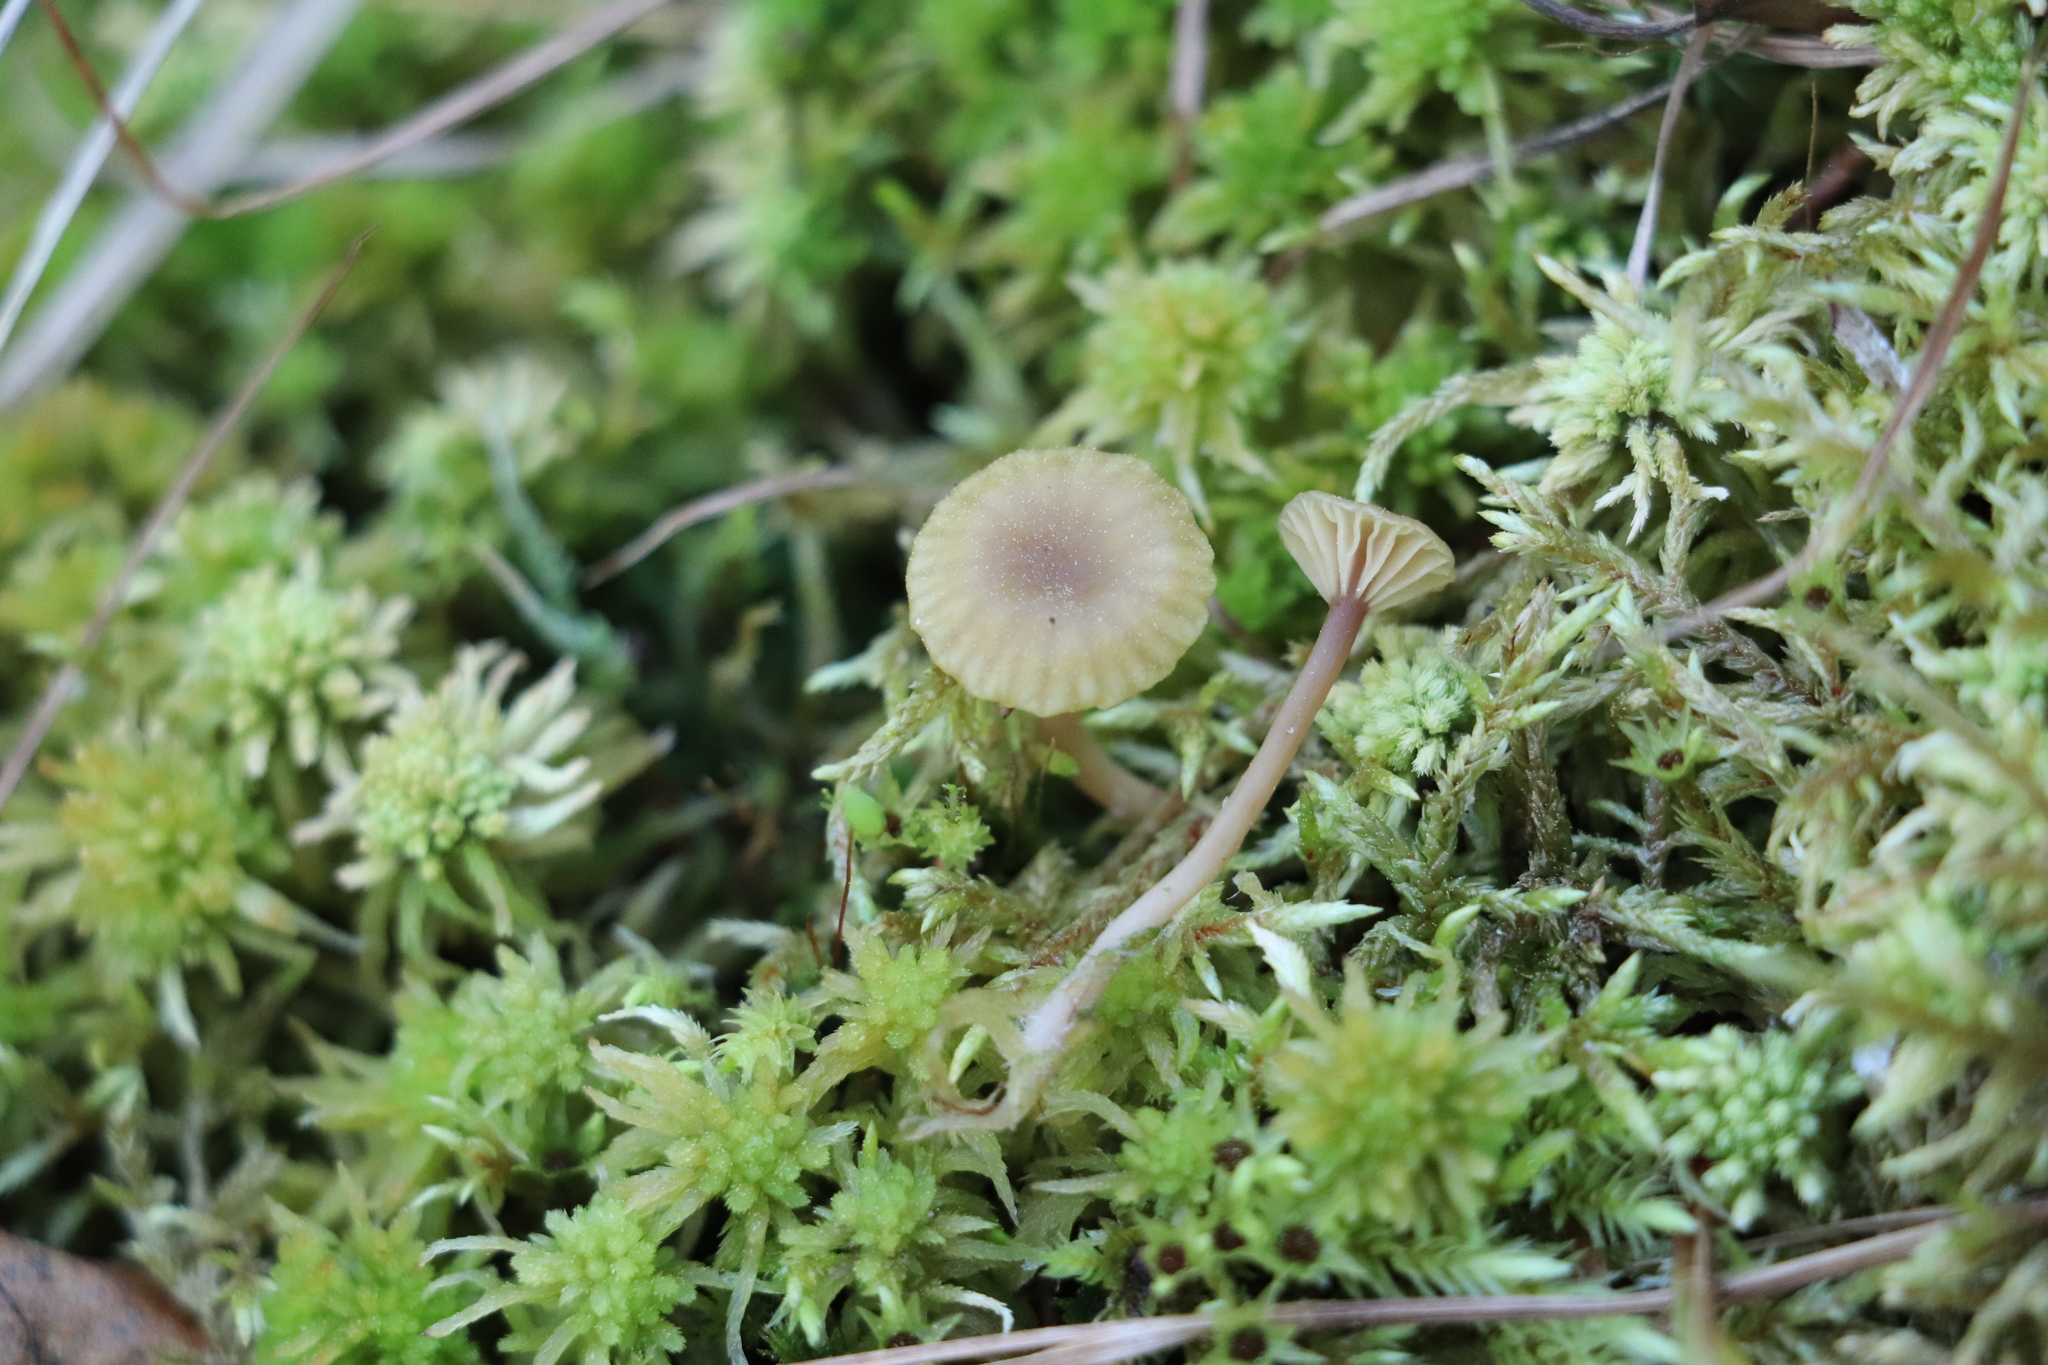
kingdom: Fungi
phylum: Basidiomycota
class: Agaricomycetes
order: Agaricales
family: Hygrophoraceae
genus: Lichenomphalia
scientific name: Lichenomphalia
